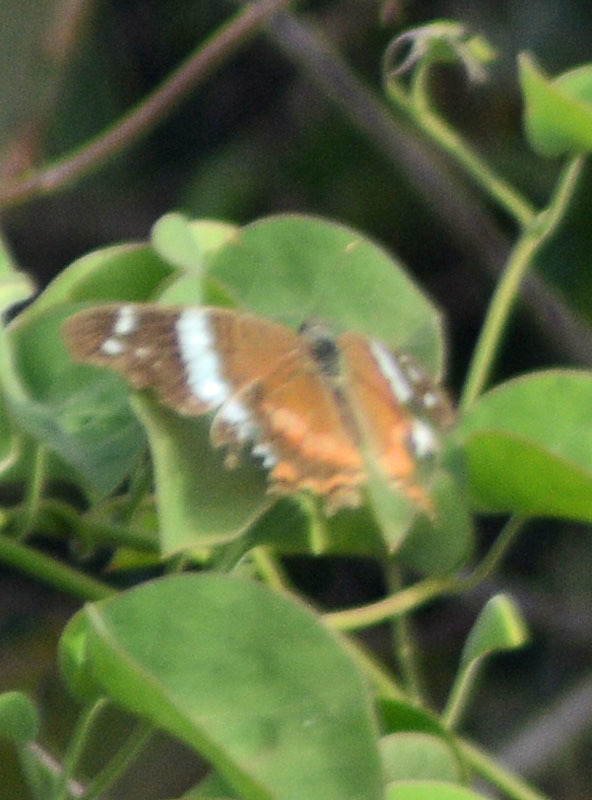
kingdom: Animalia
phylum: Arthropoda
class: Insecta
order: Lepidoptera
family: Nymphalidae
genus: Anartia
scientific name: Anartia fatima
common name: Banded peacock
